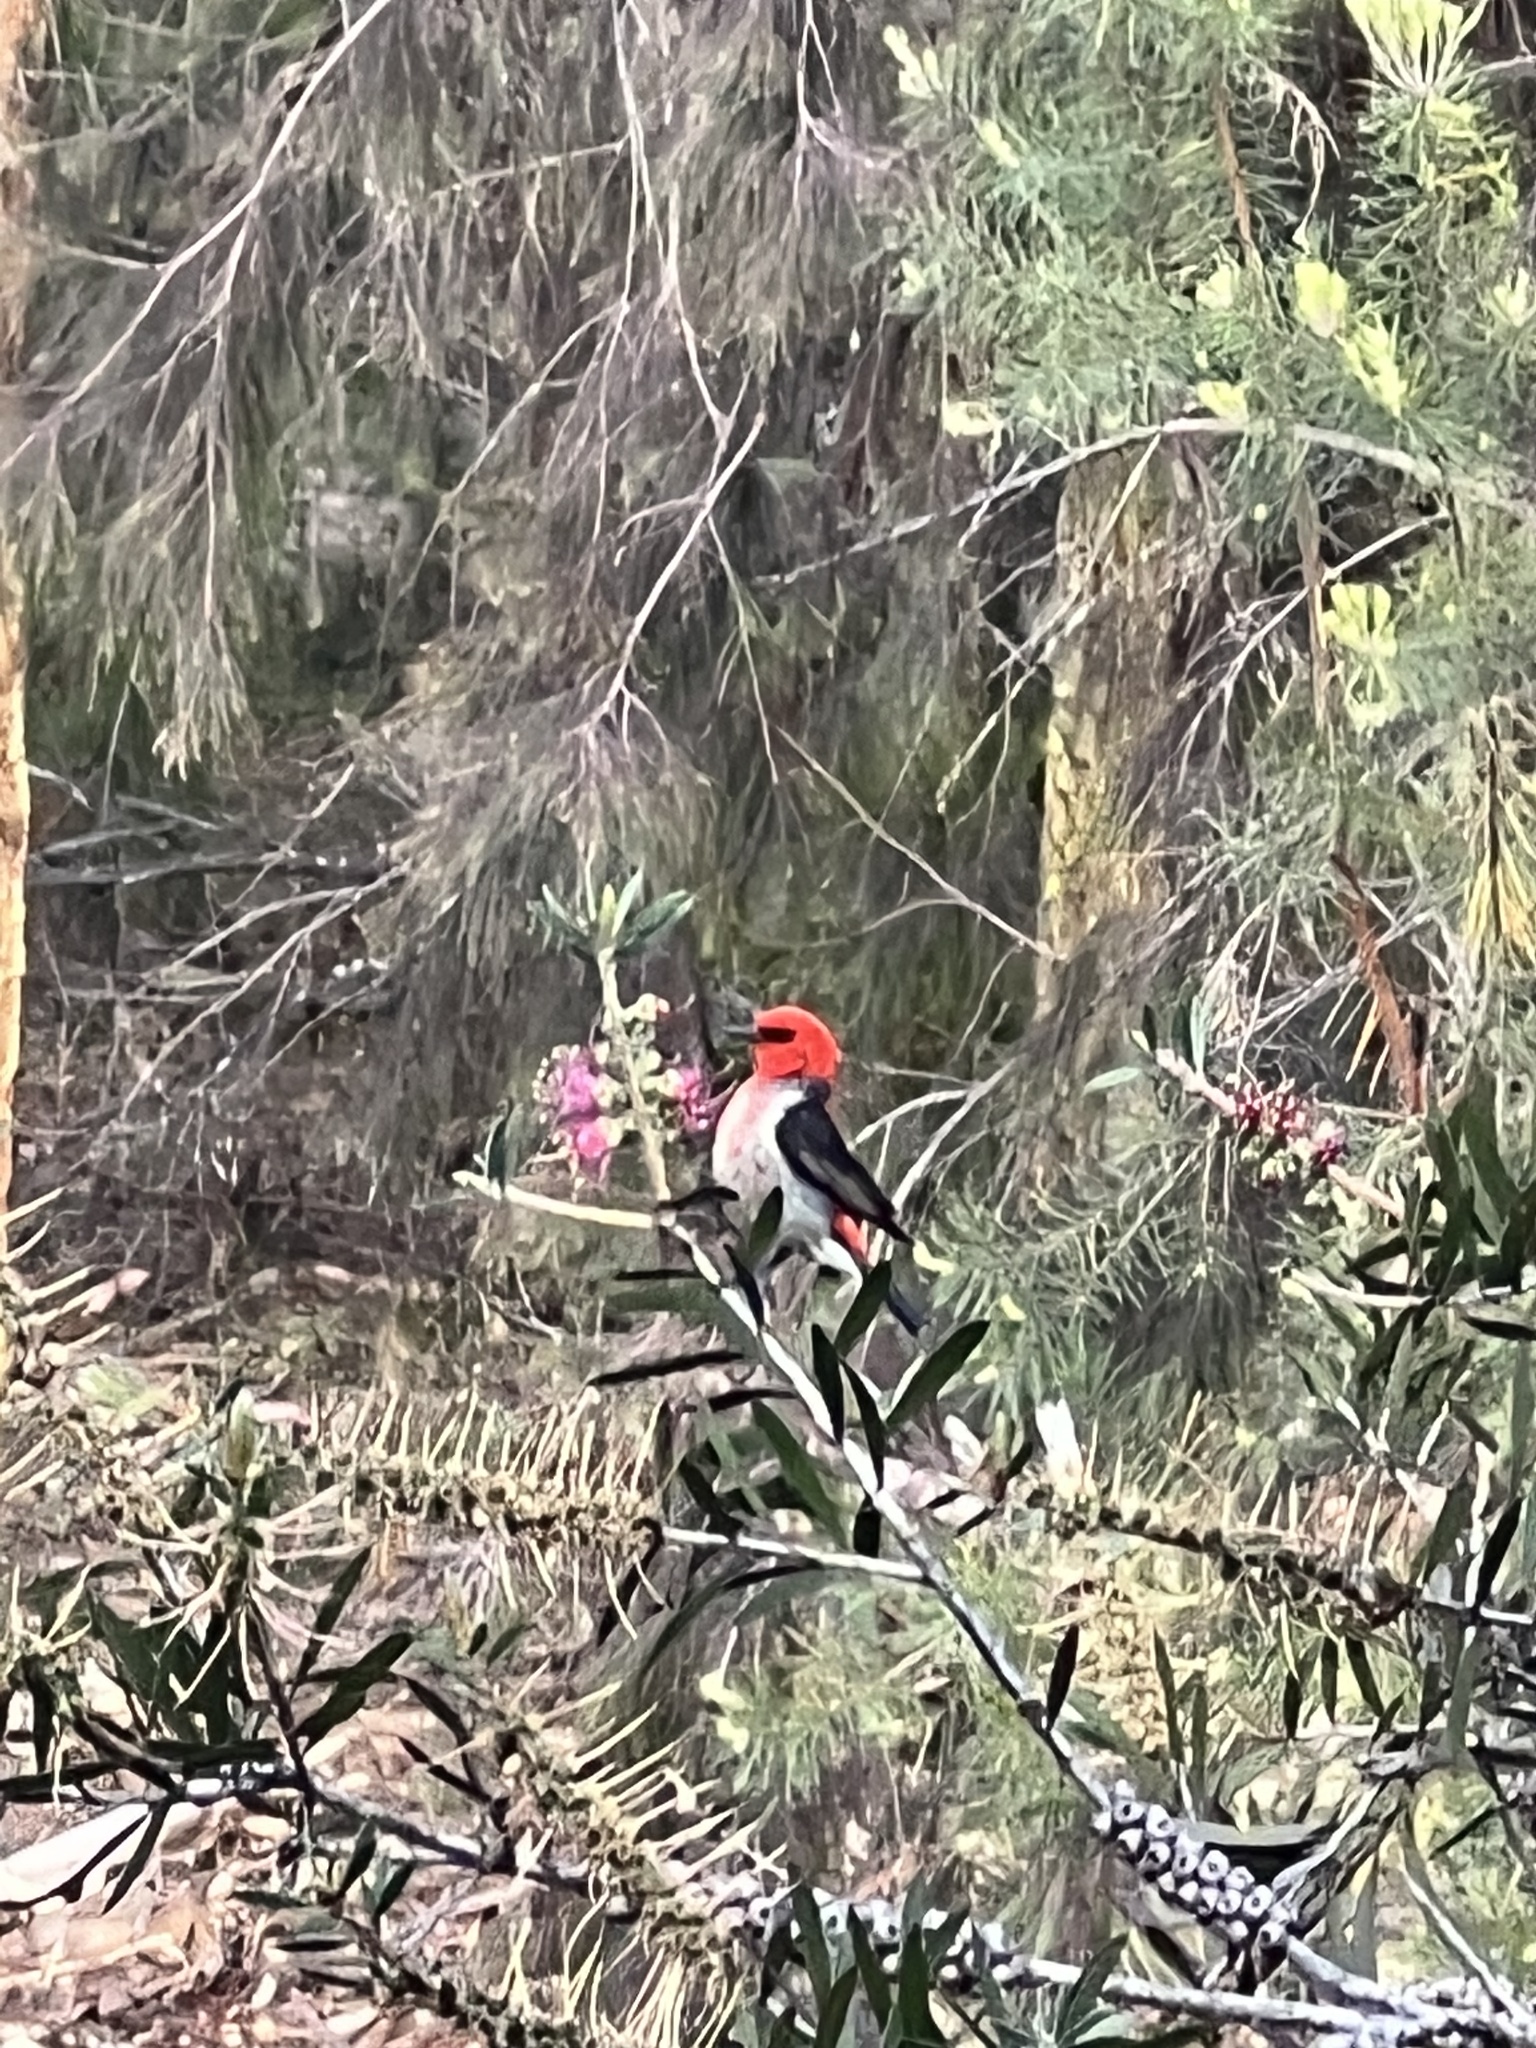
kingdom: Animalia
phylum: Chordata
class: Aves
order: Passeriformes
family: Meliphagidae
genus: Myzomela
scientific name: Myzomela sanguinolenta
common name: Scarlet myzomela
